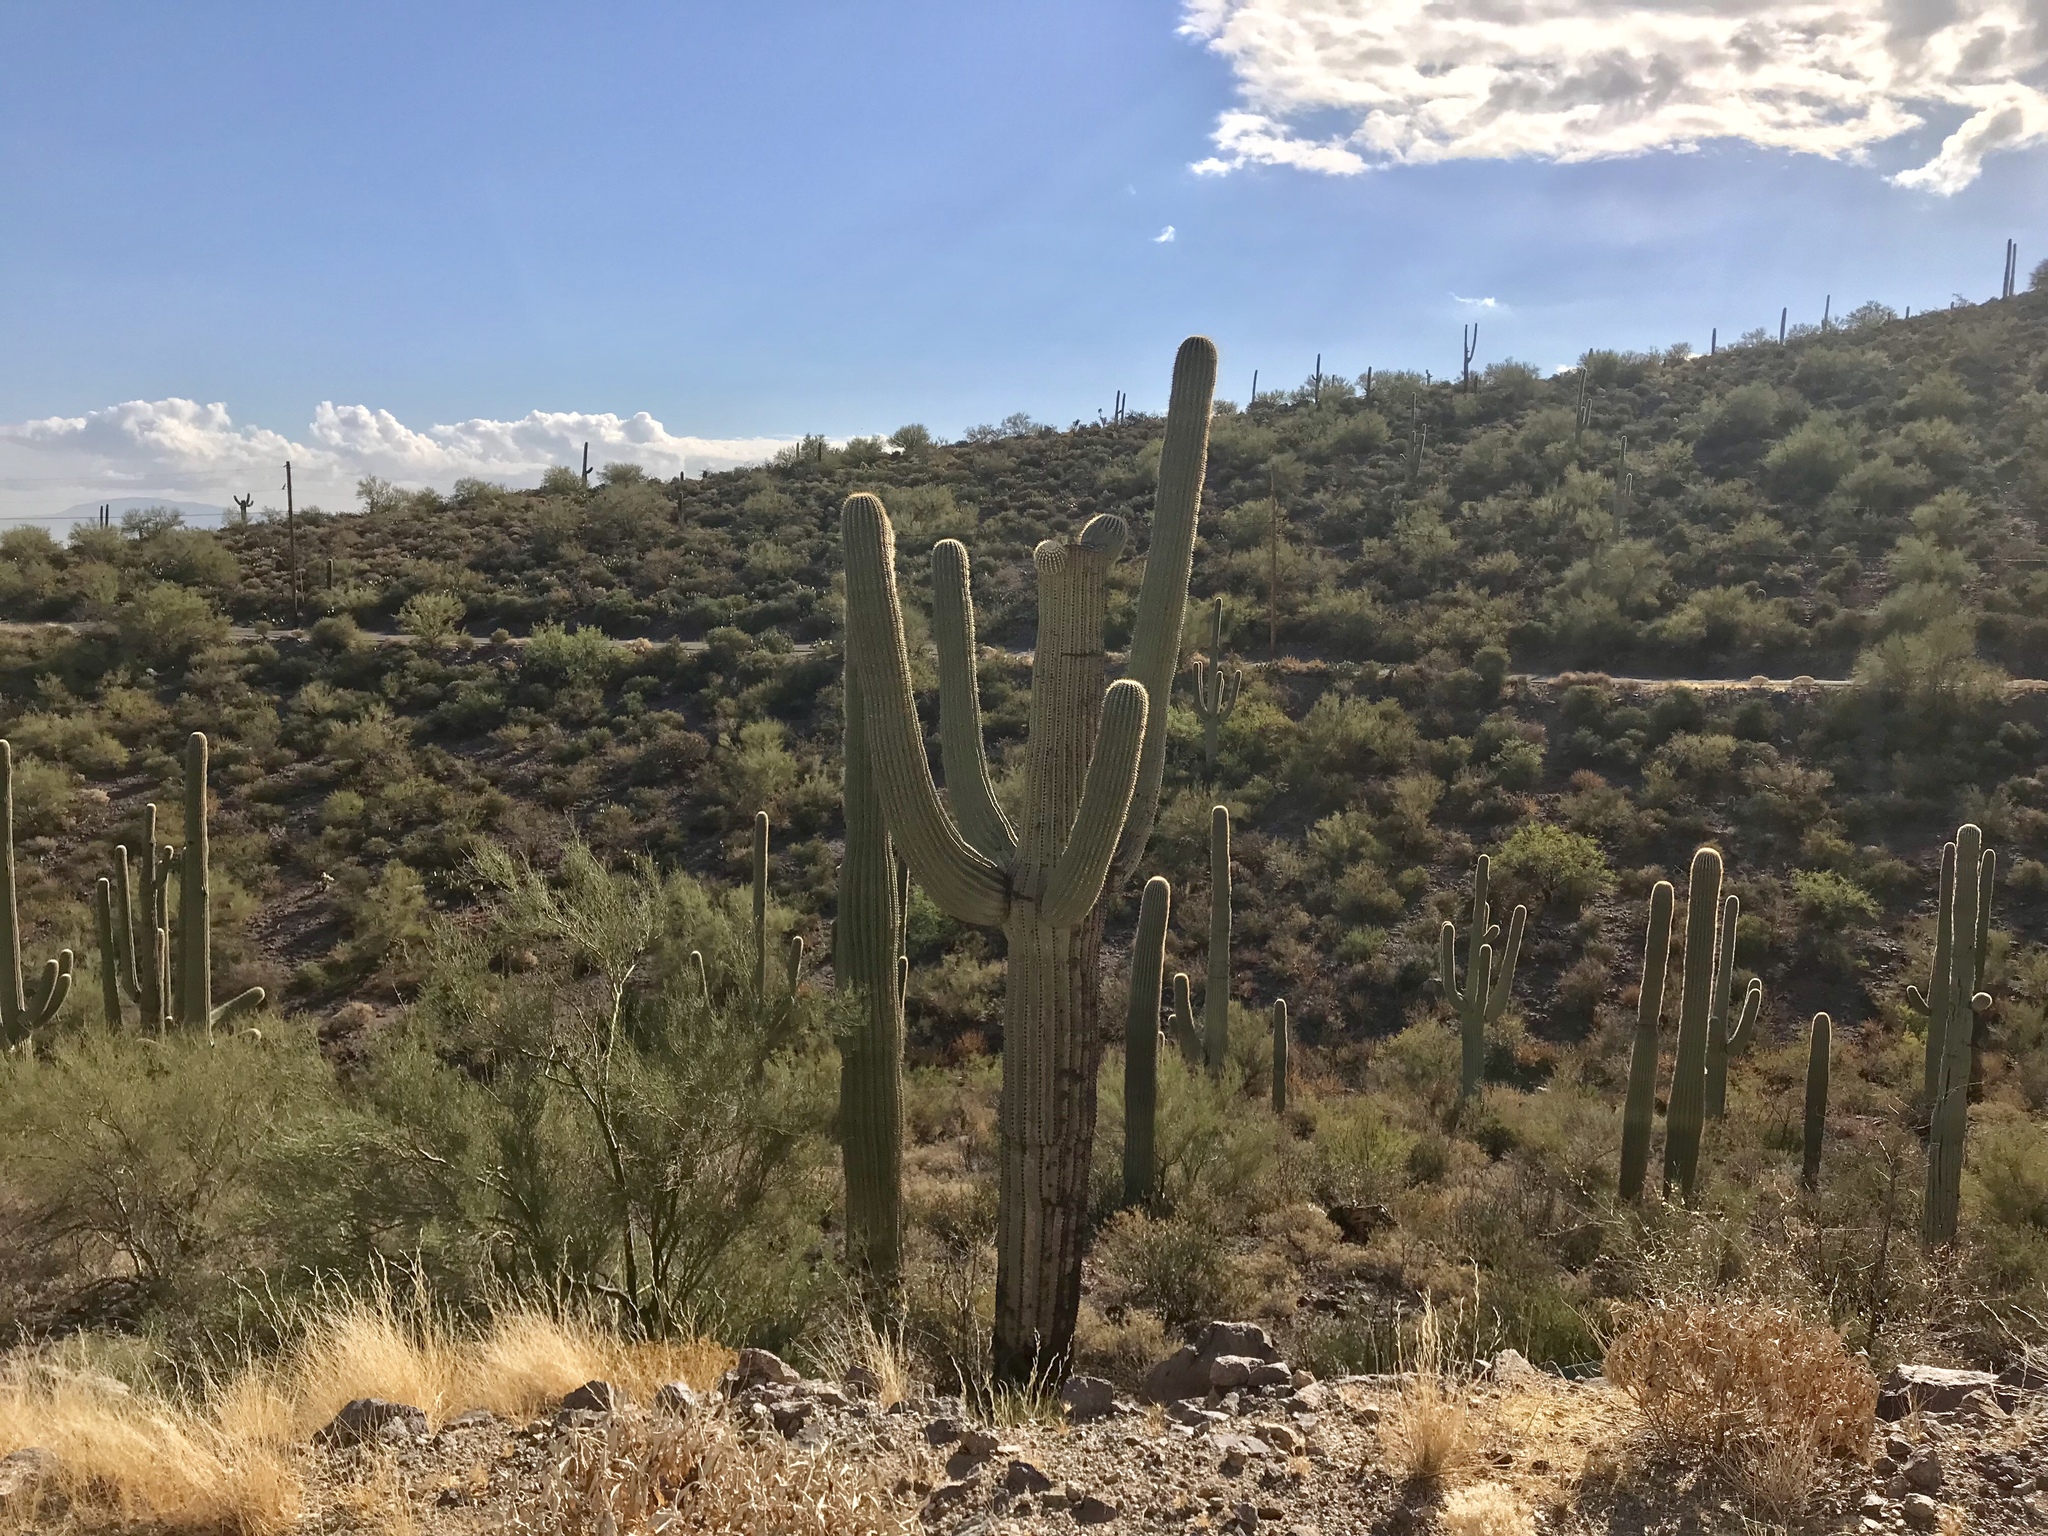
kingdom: Plantae
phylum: Tracheophyta
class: Magnoliopsida
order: Caryophyllales
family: Cactaceae
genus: Carnegiea
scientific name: Carnegiea gigantea
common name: Saguaro
